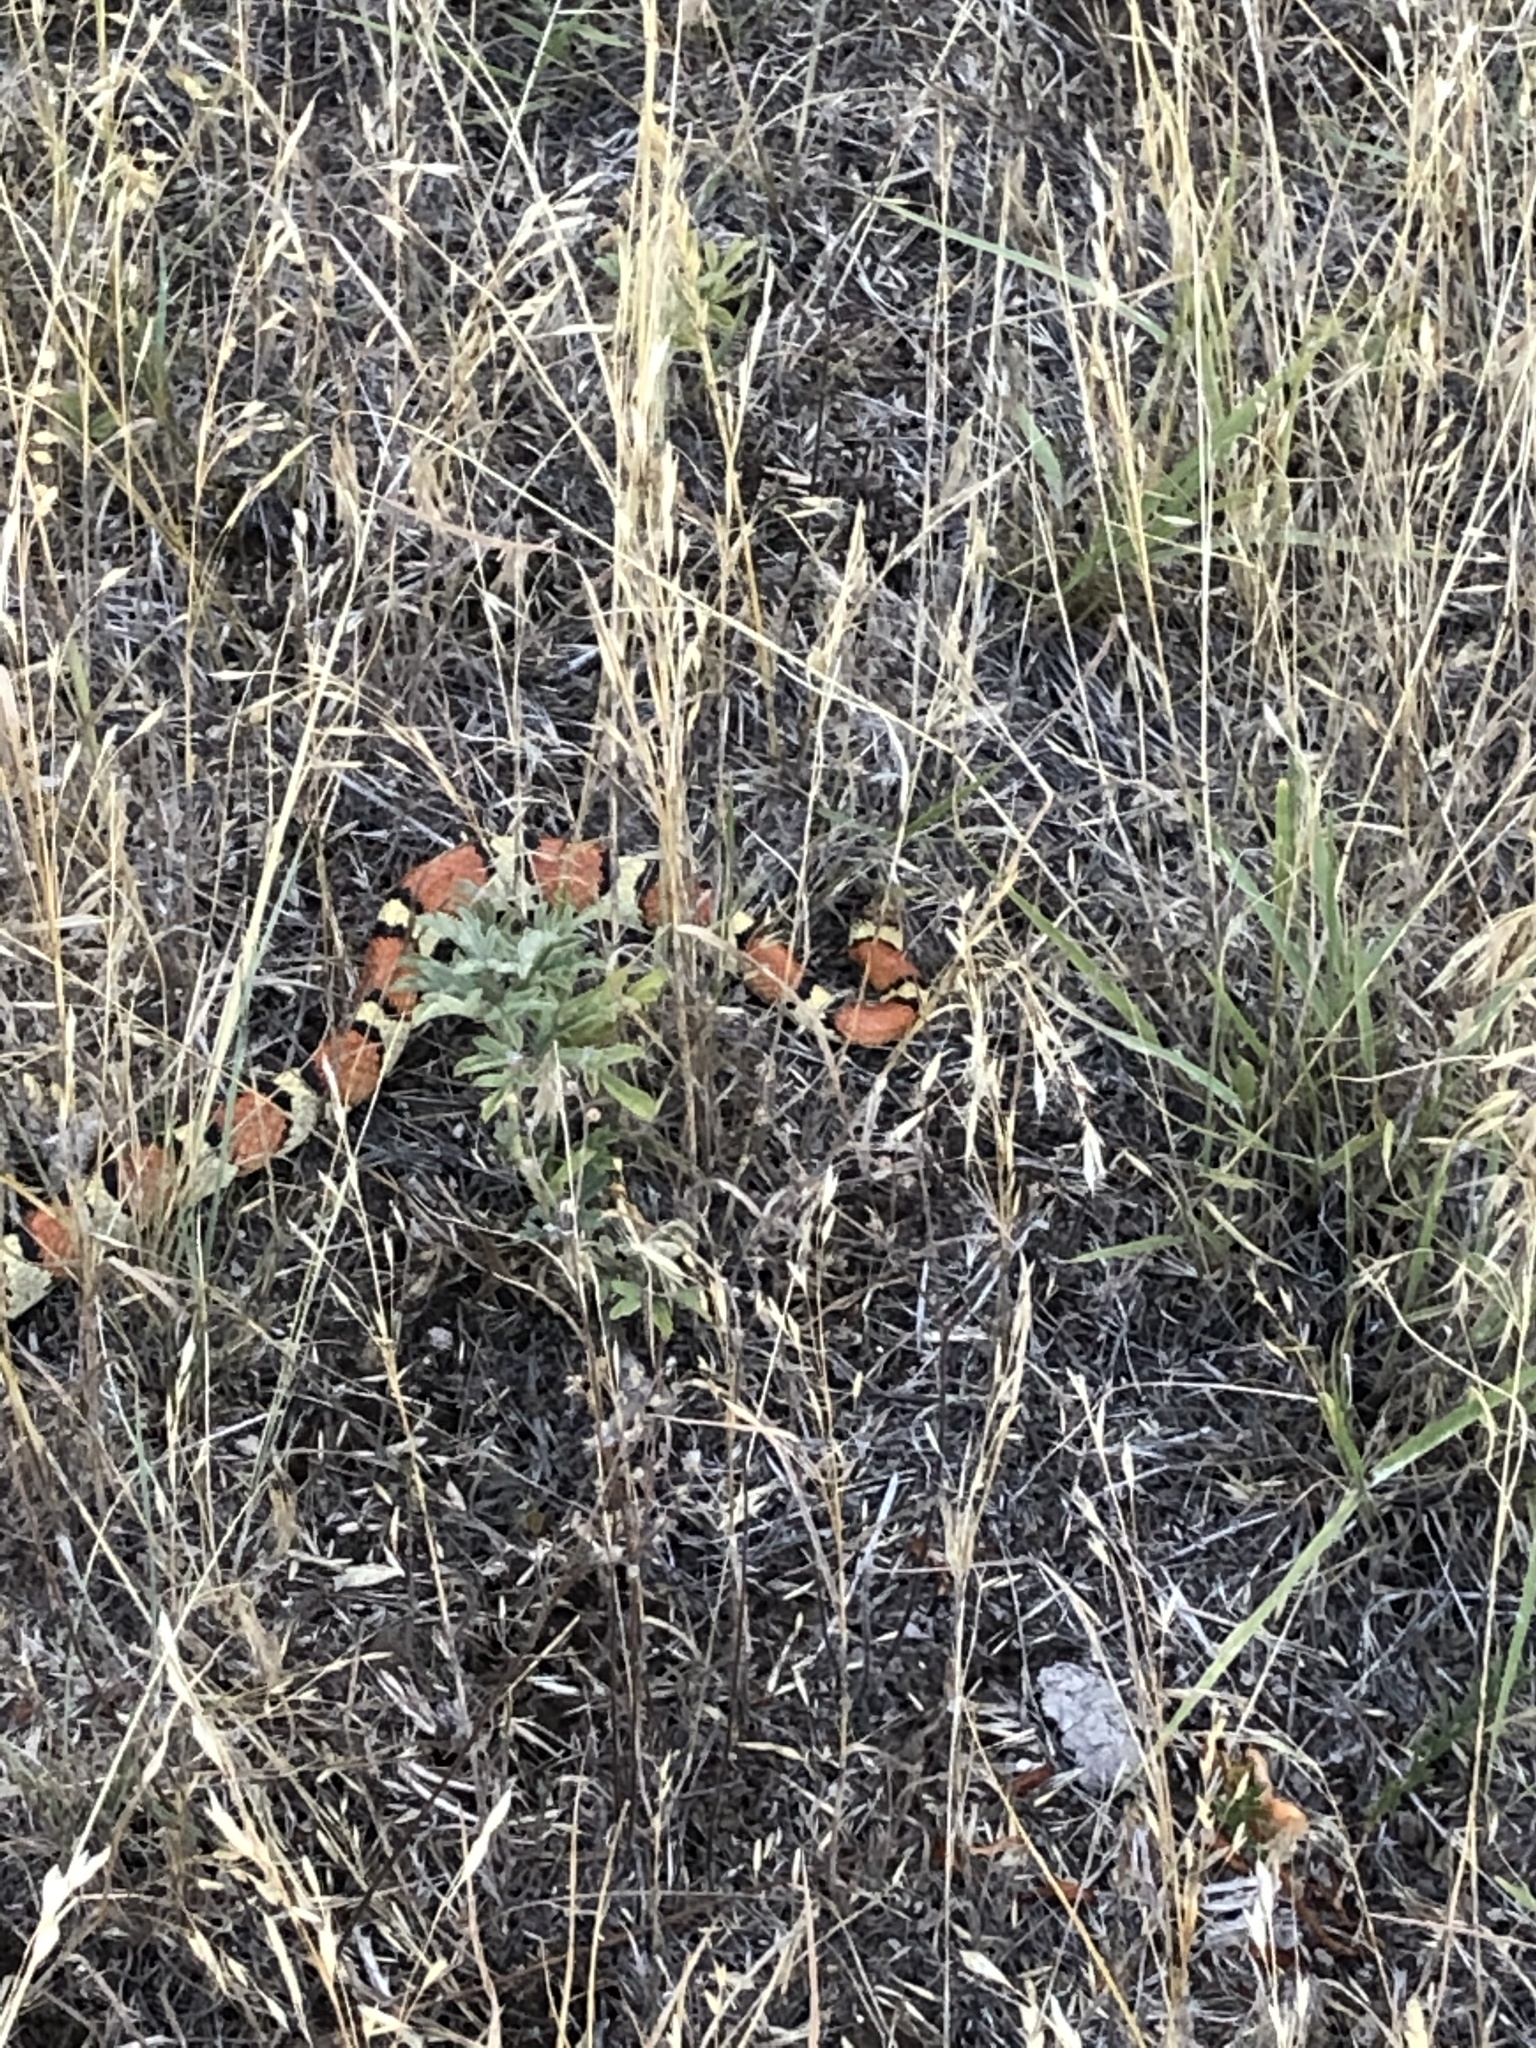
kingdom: Animalia
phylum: Chordata
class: Squamata
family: Colubridae
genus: Lampropeltis
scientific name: Lampropeltis gentilis
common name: Central plains milksnake
